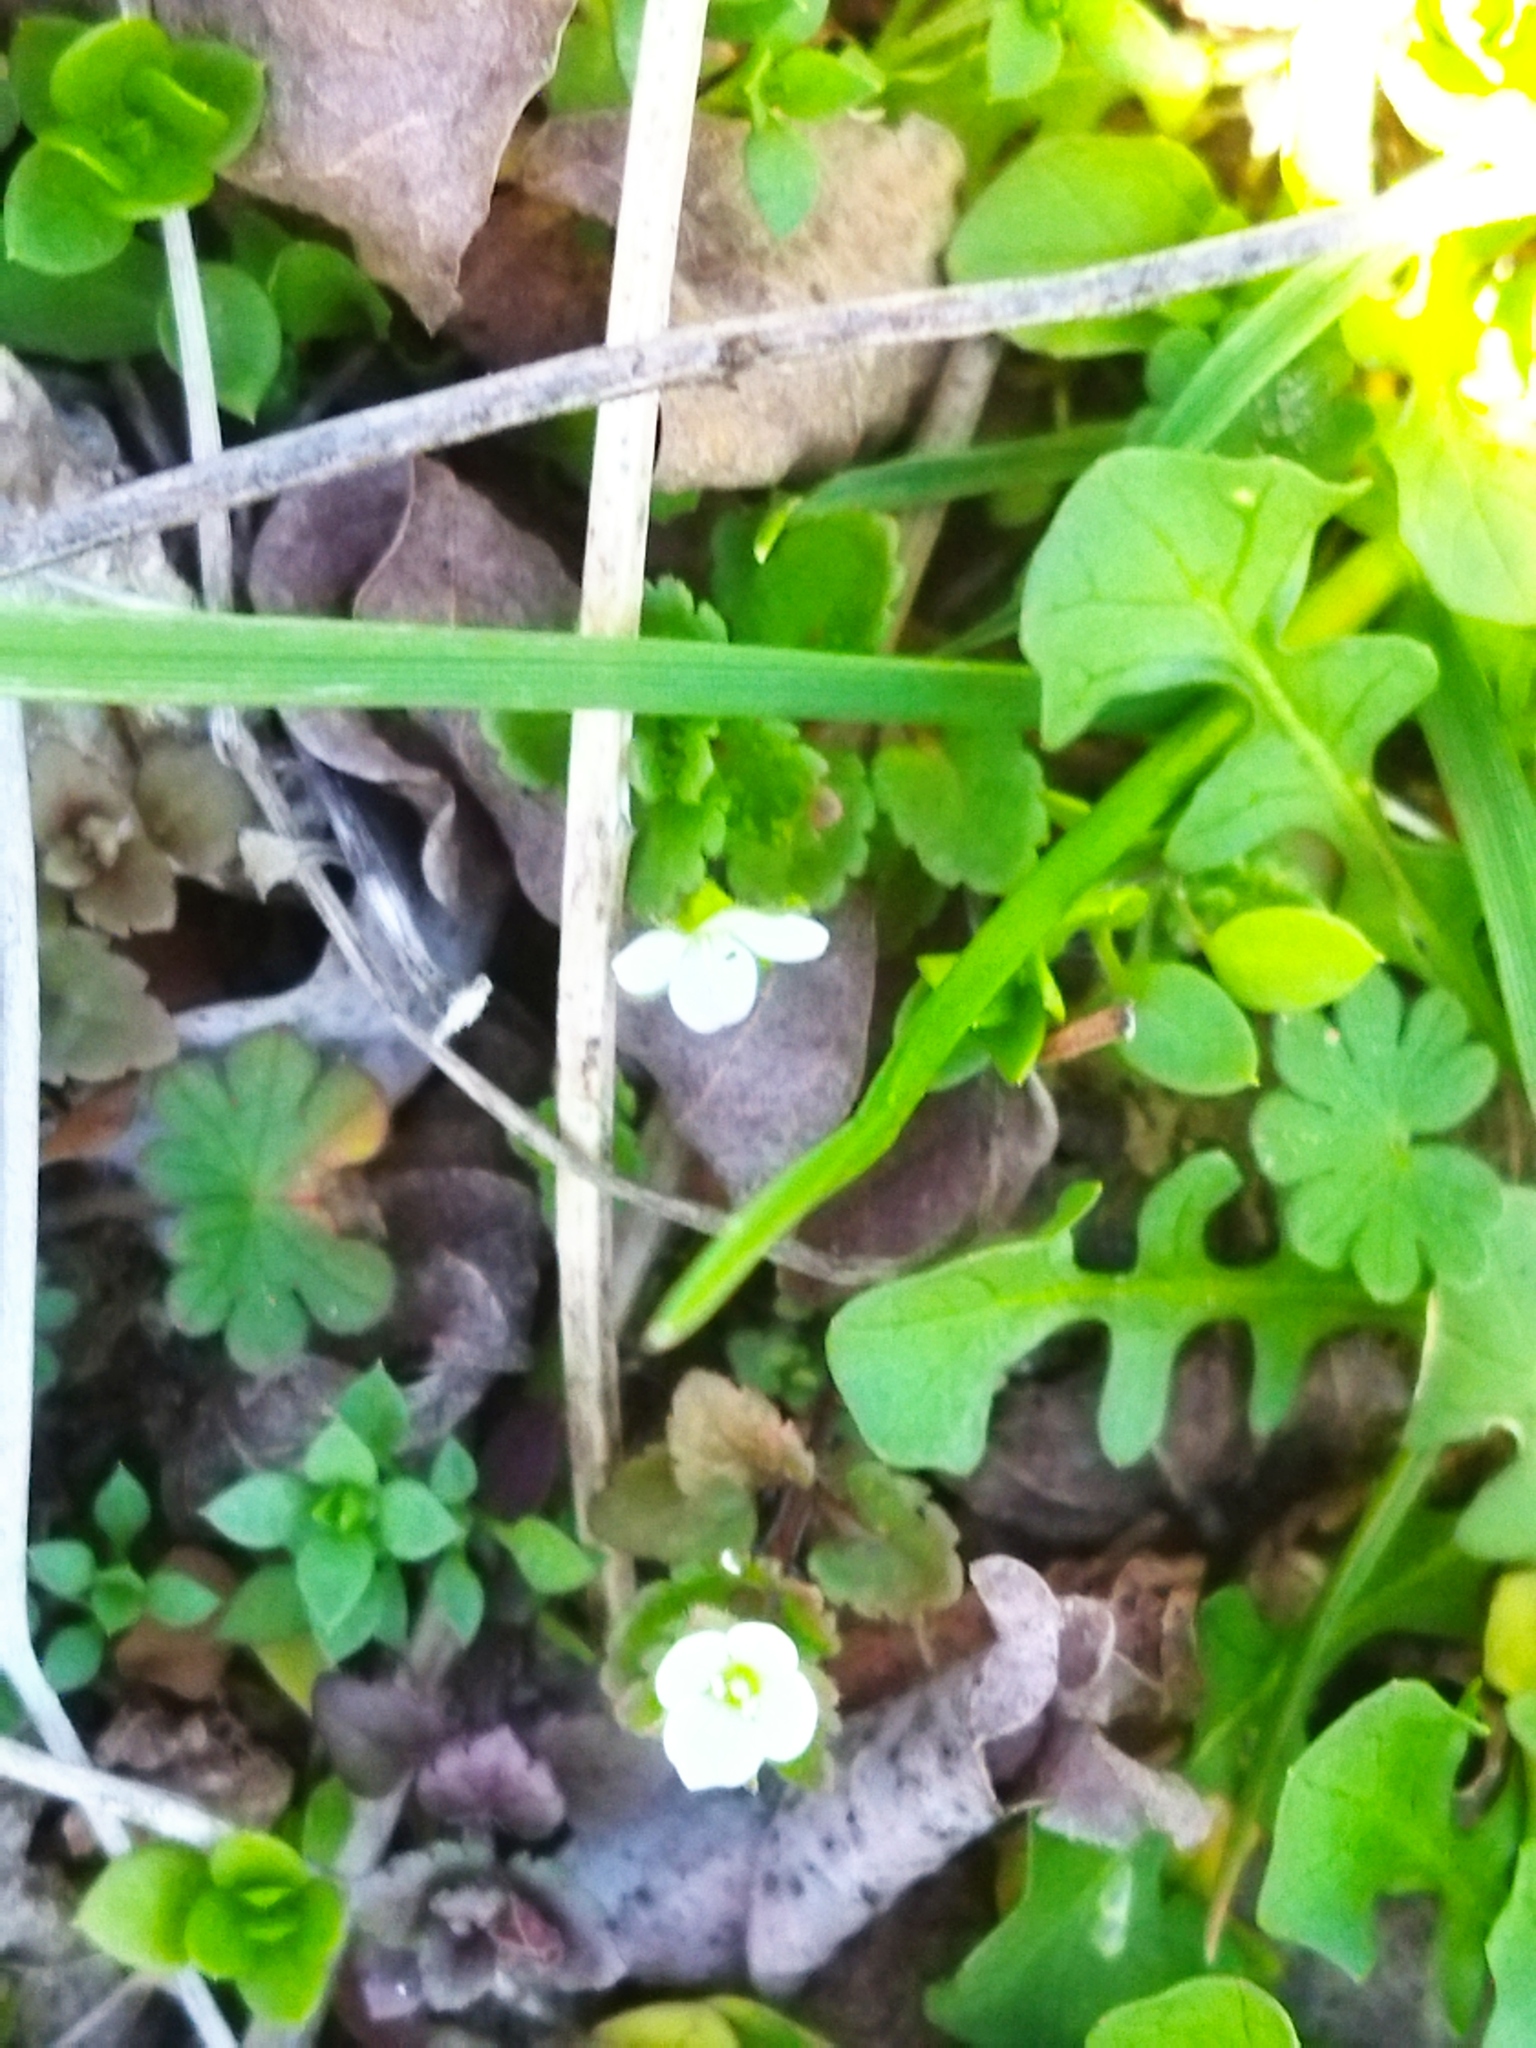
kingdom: Plantae
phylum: Tracheophyta
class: Magnoliopsida
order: Lamiales
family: Plantaginaceae
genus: Veronica
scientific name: Veronica persica
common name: Common field-speedwell
